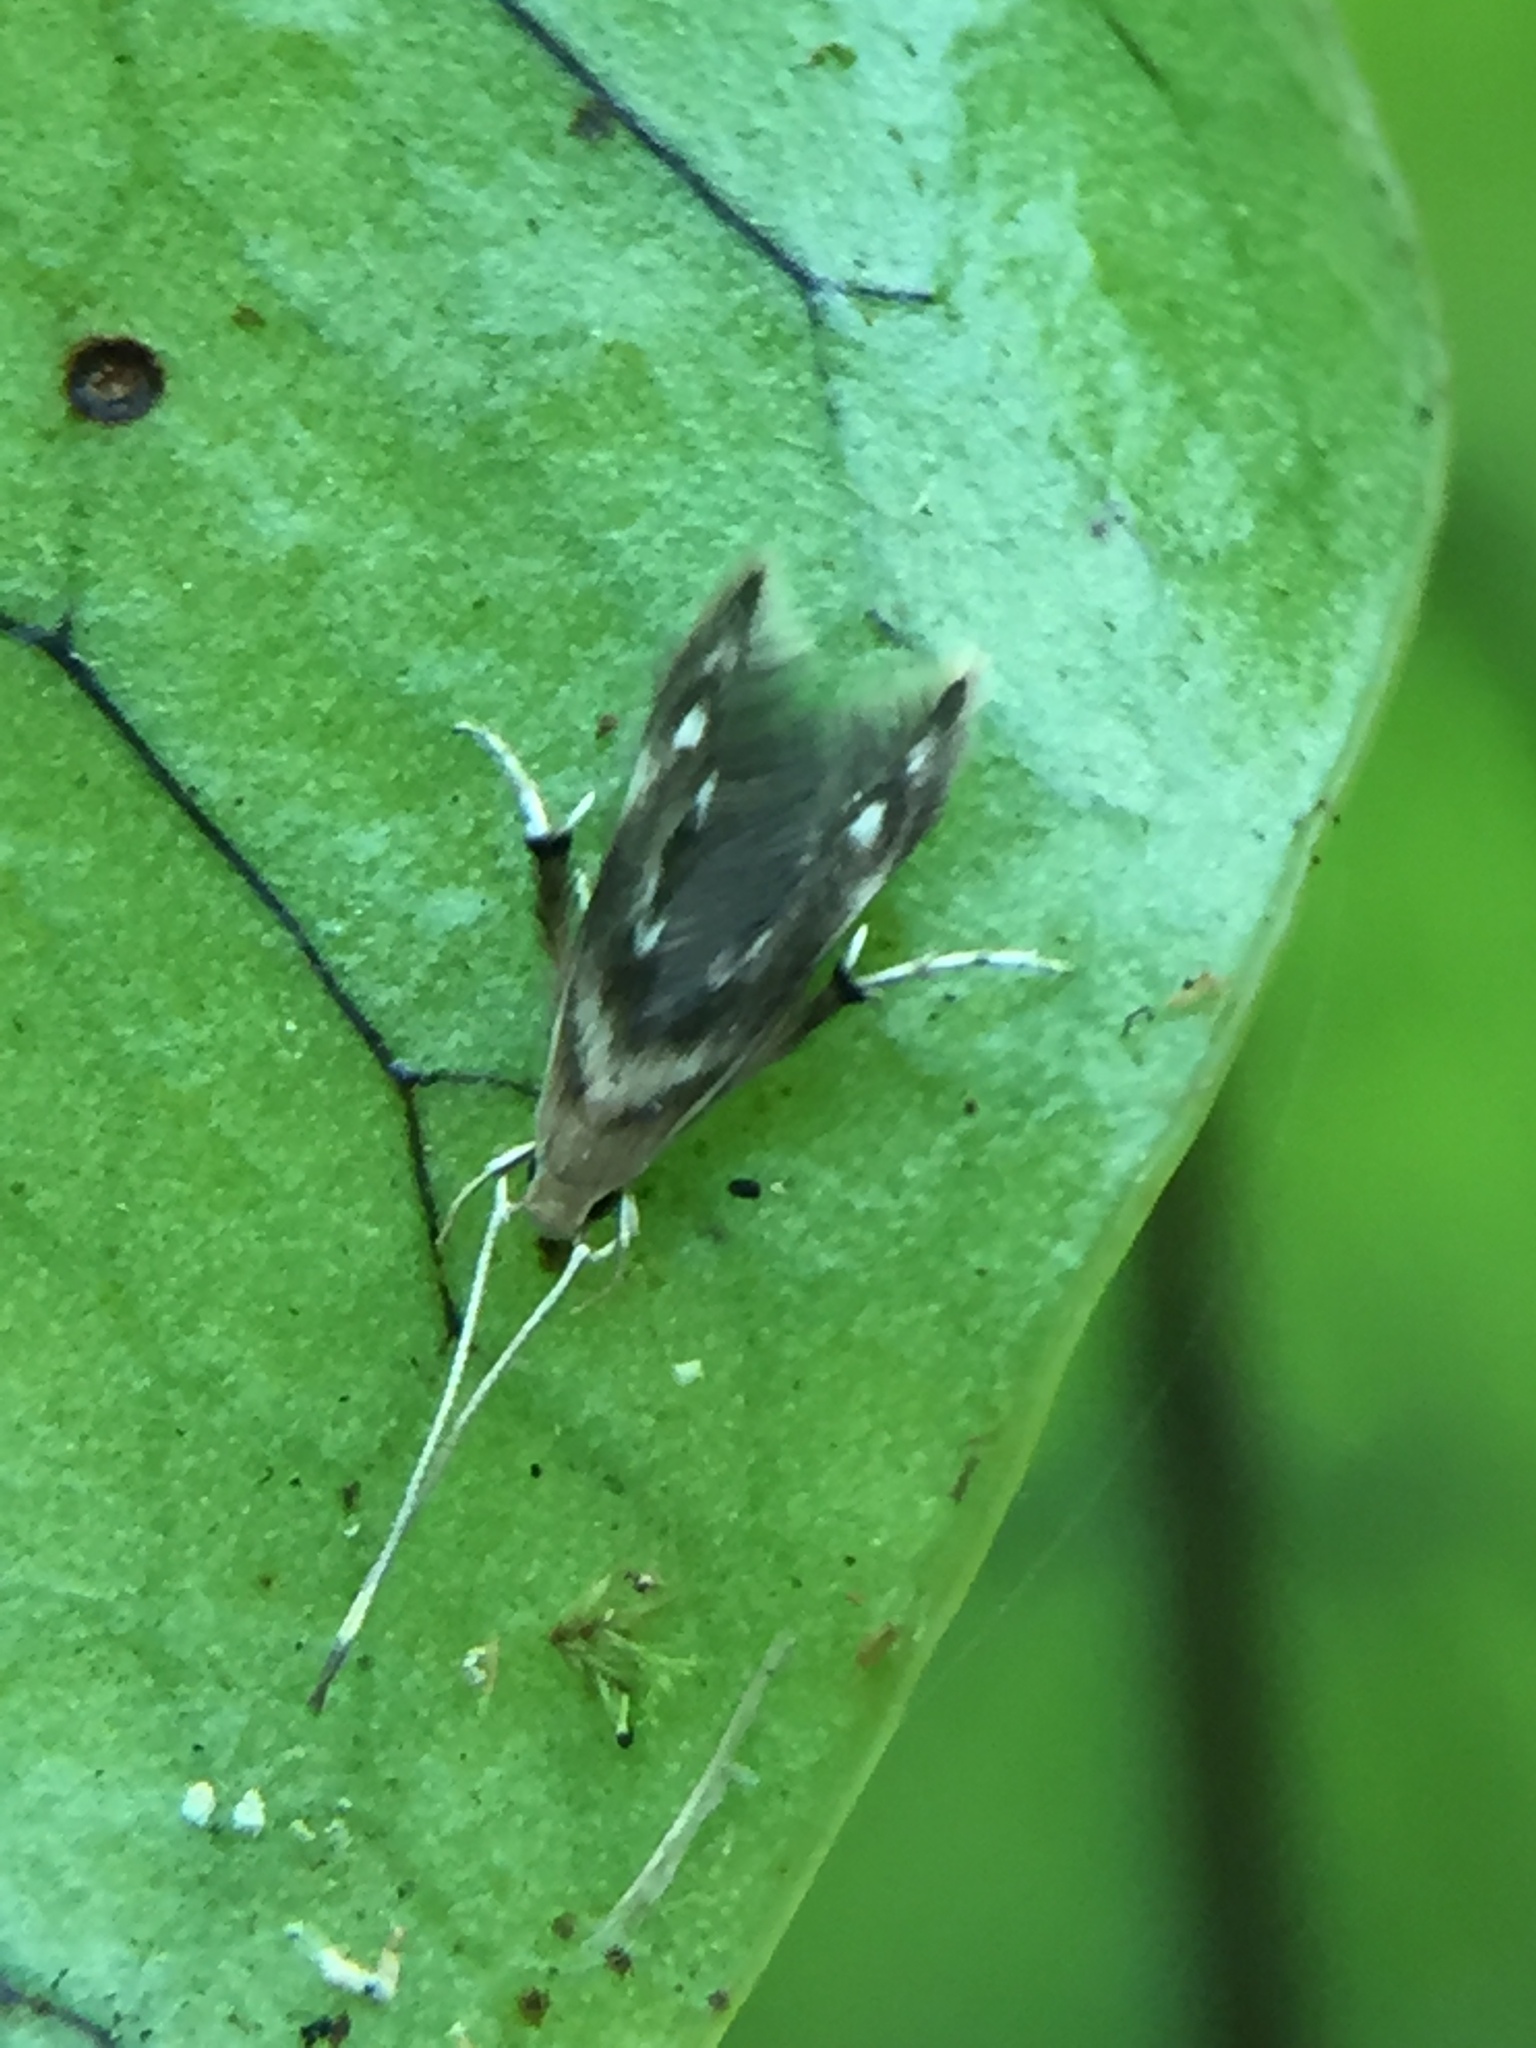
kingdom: Animalia
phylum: Arthropoda
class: Insecta
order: Lepidoptera
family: Stathmopodidae
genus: Thylacosceles
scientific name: Thylacosceles radians
